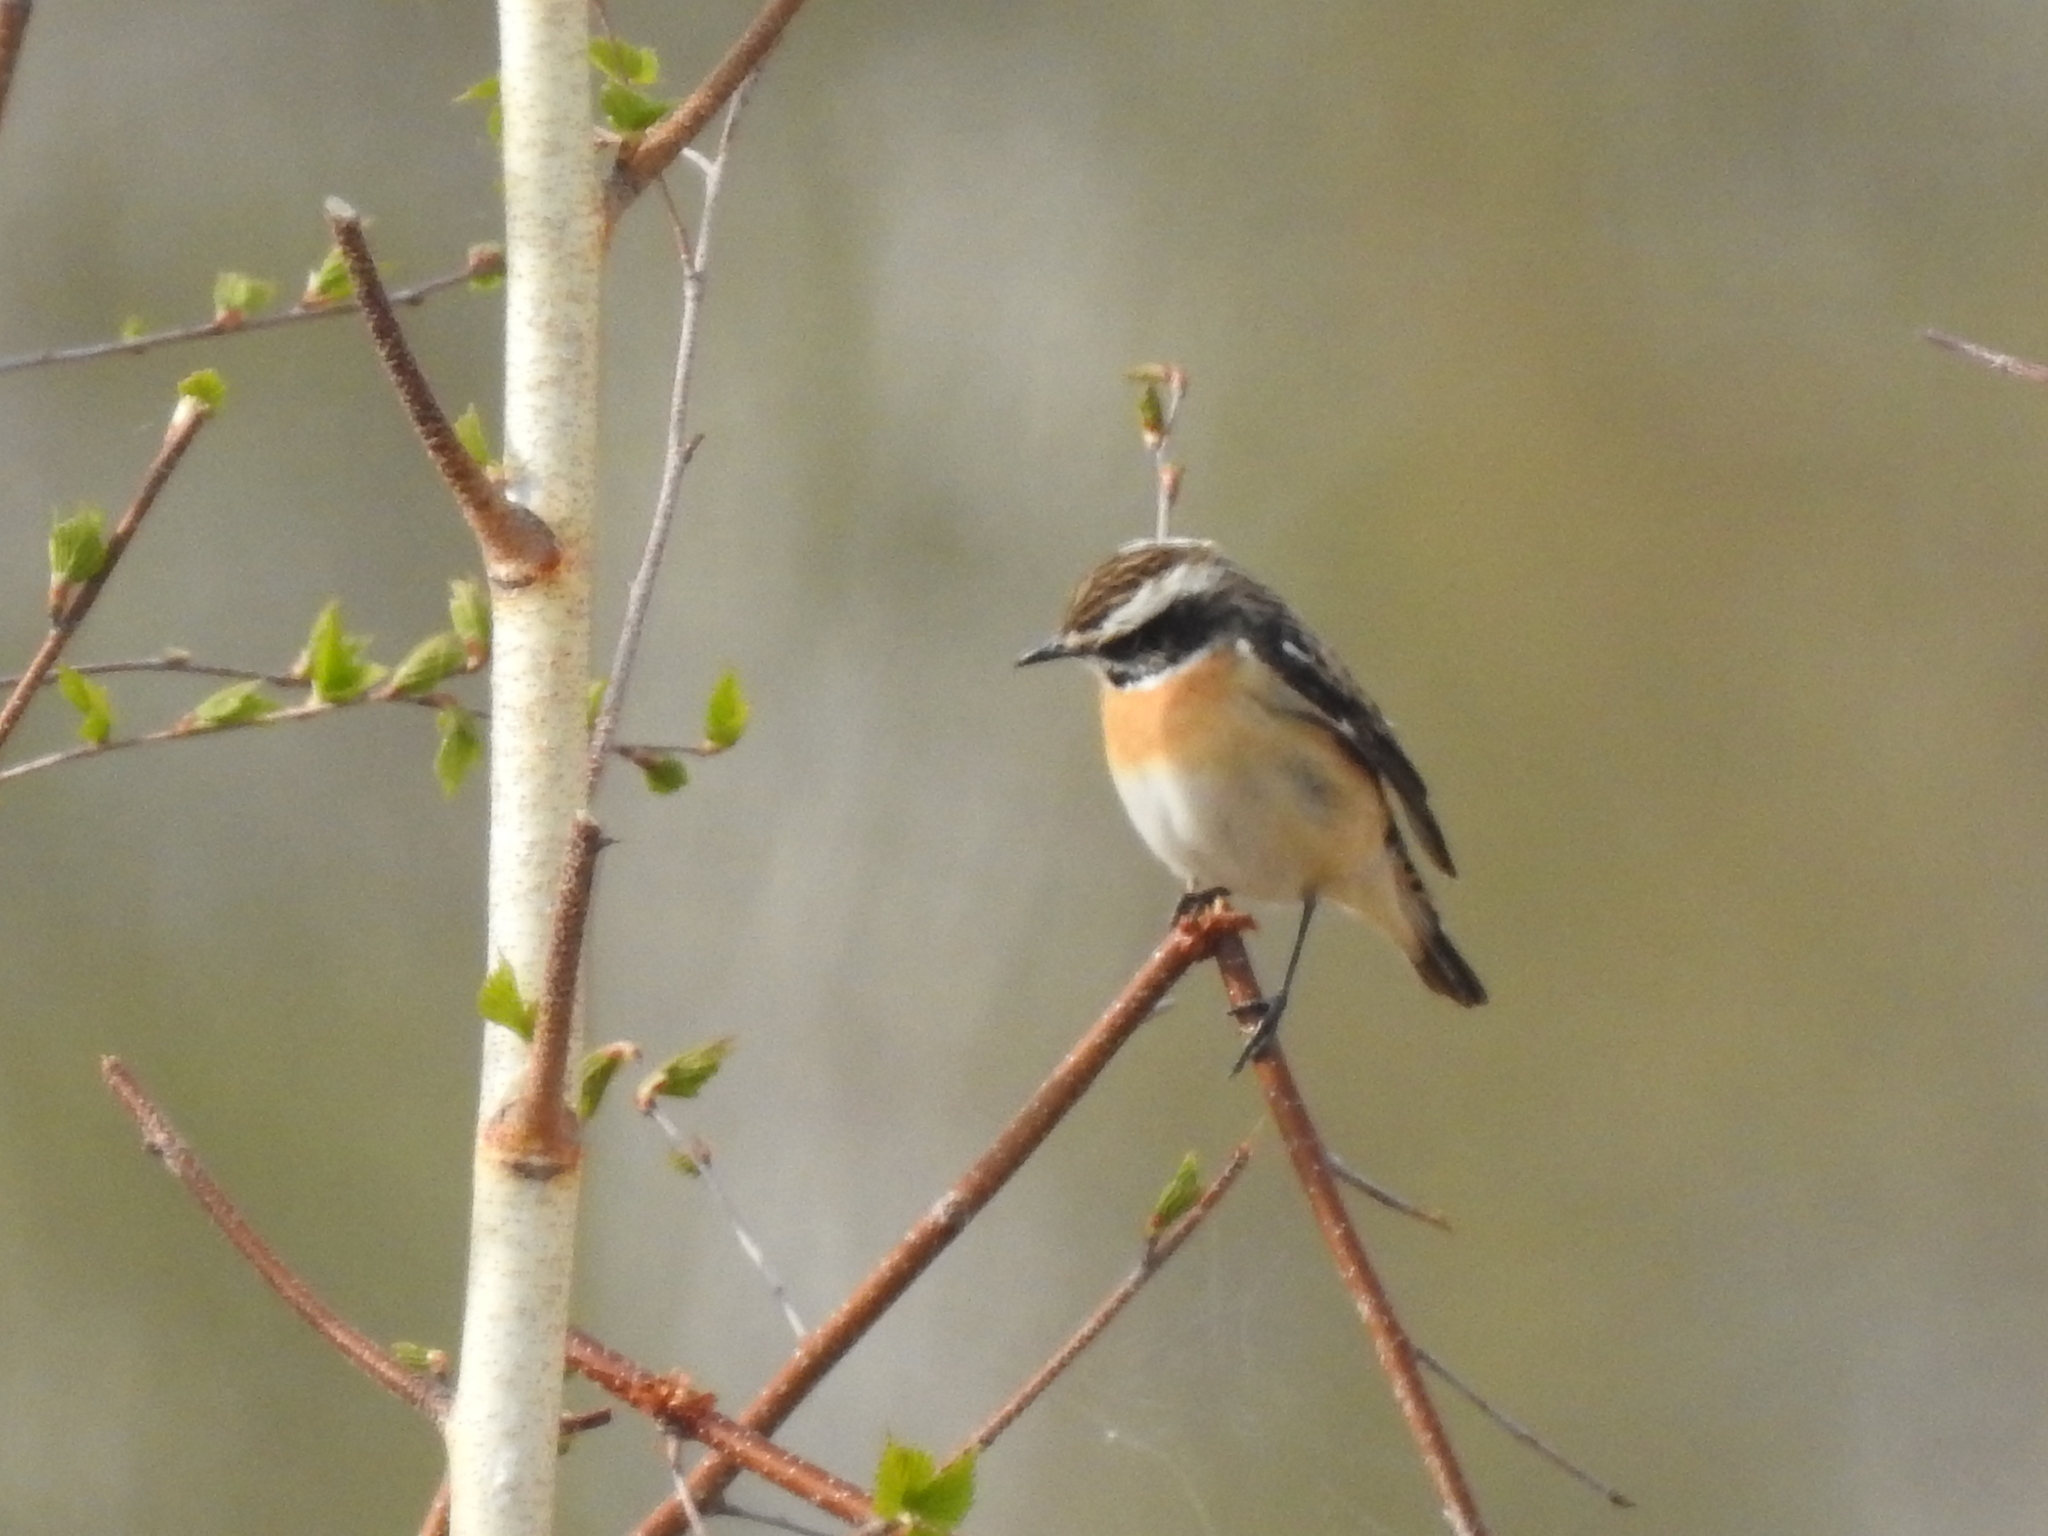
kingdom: Animalia
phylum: Chordata
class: Aves
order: Passeriformes
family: Muscicapidae
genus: Saxicola
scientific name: Saxicola rubetra
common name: Whinchat
